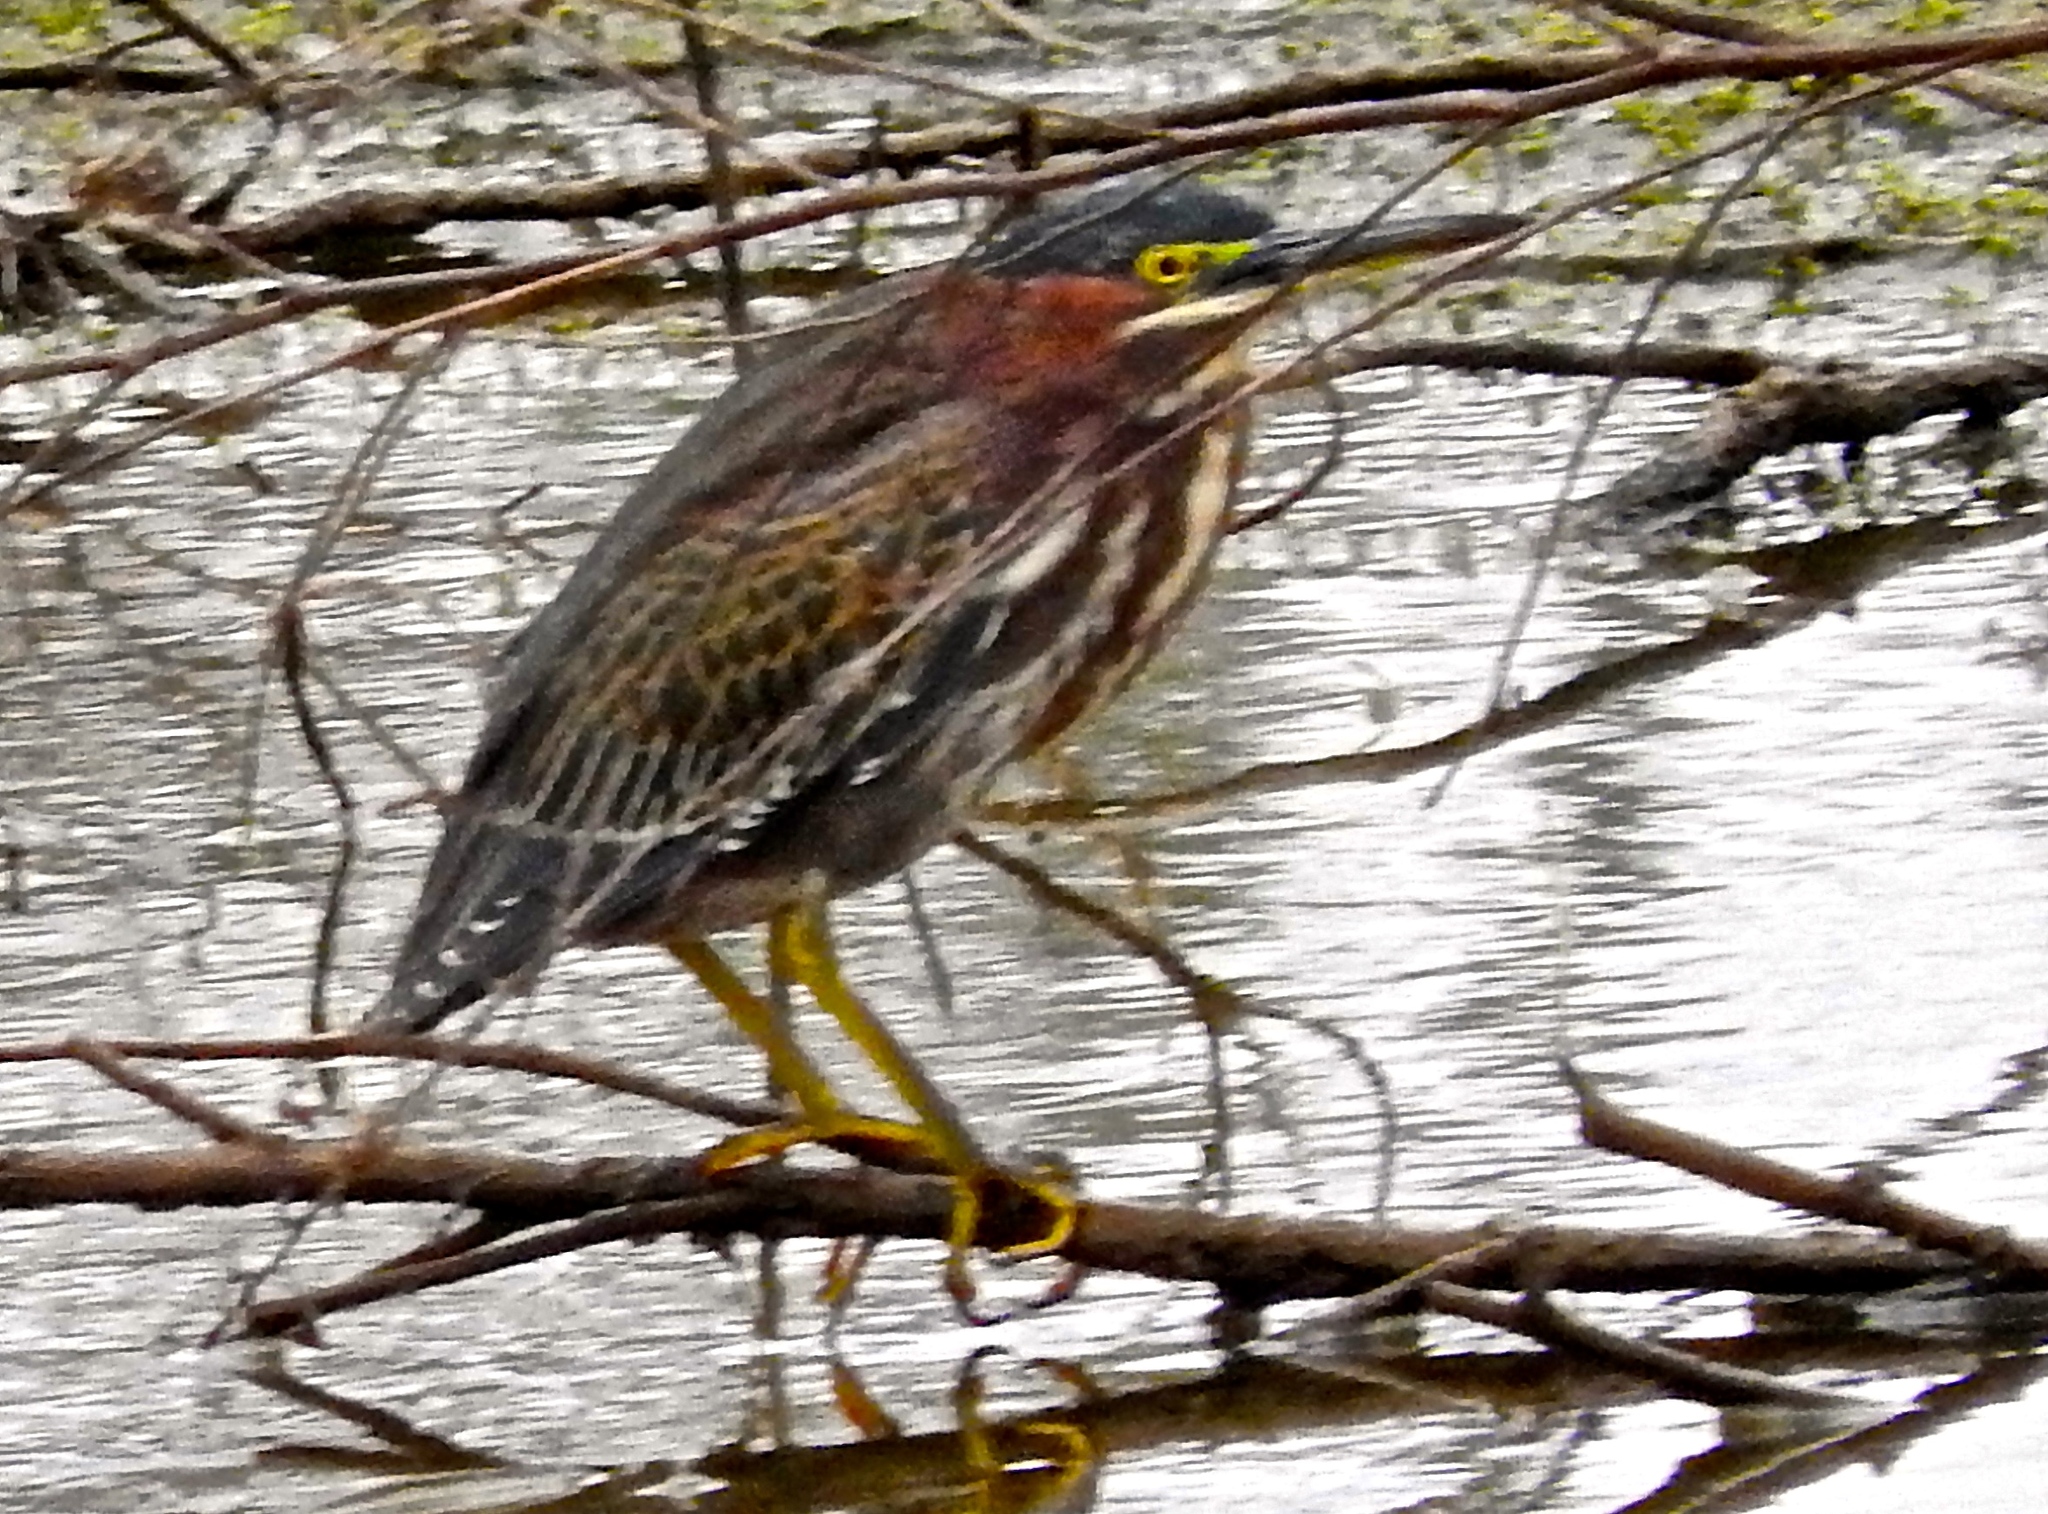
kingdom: Animalia
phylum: Chordata
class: Aves
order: Pelecaniformes
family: Ardeidae
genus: Butorides
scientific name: Butorides virescens
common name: Green heron
